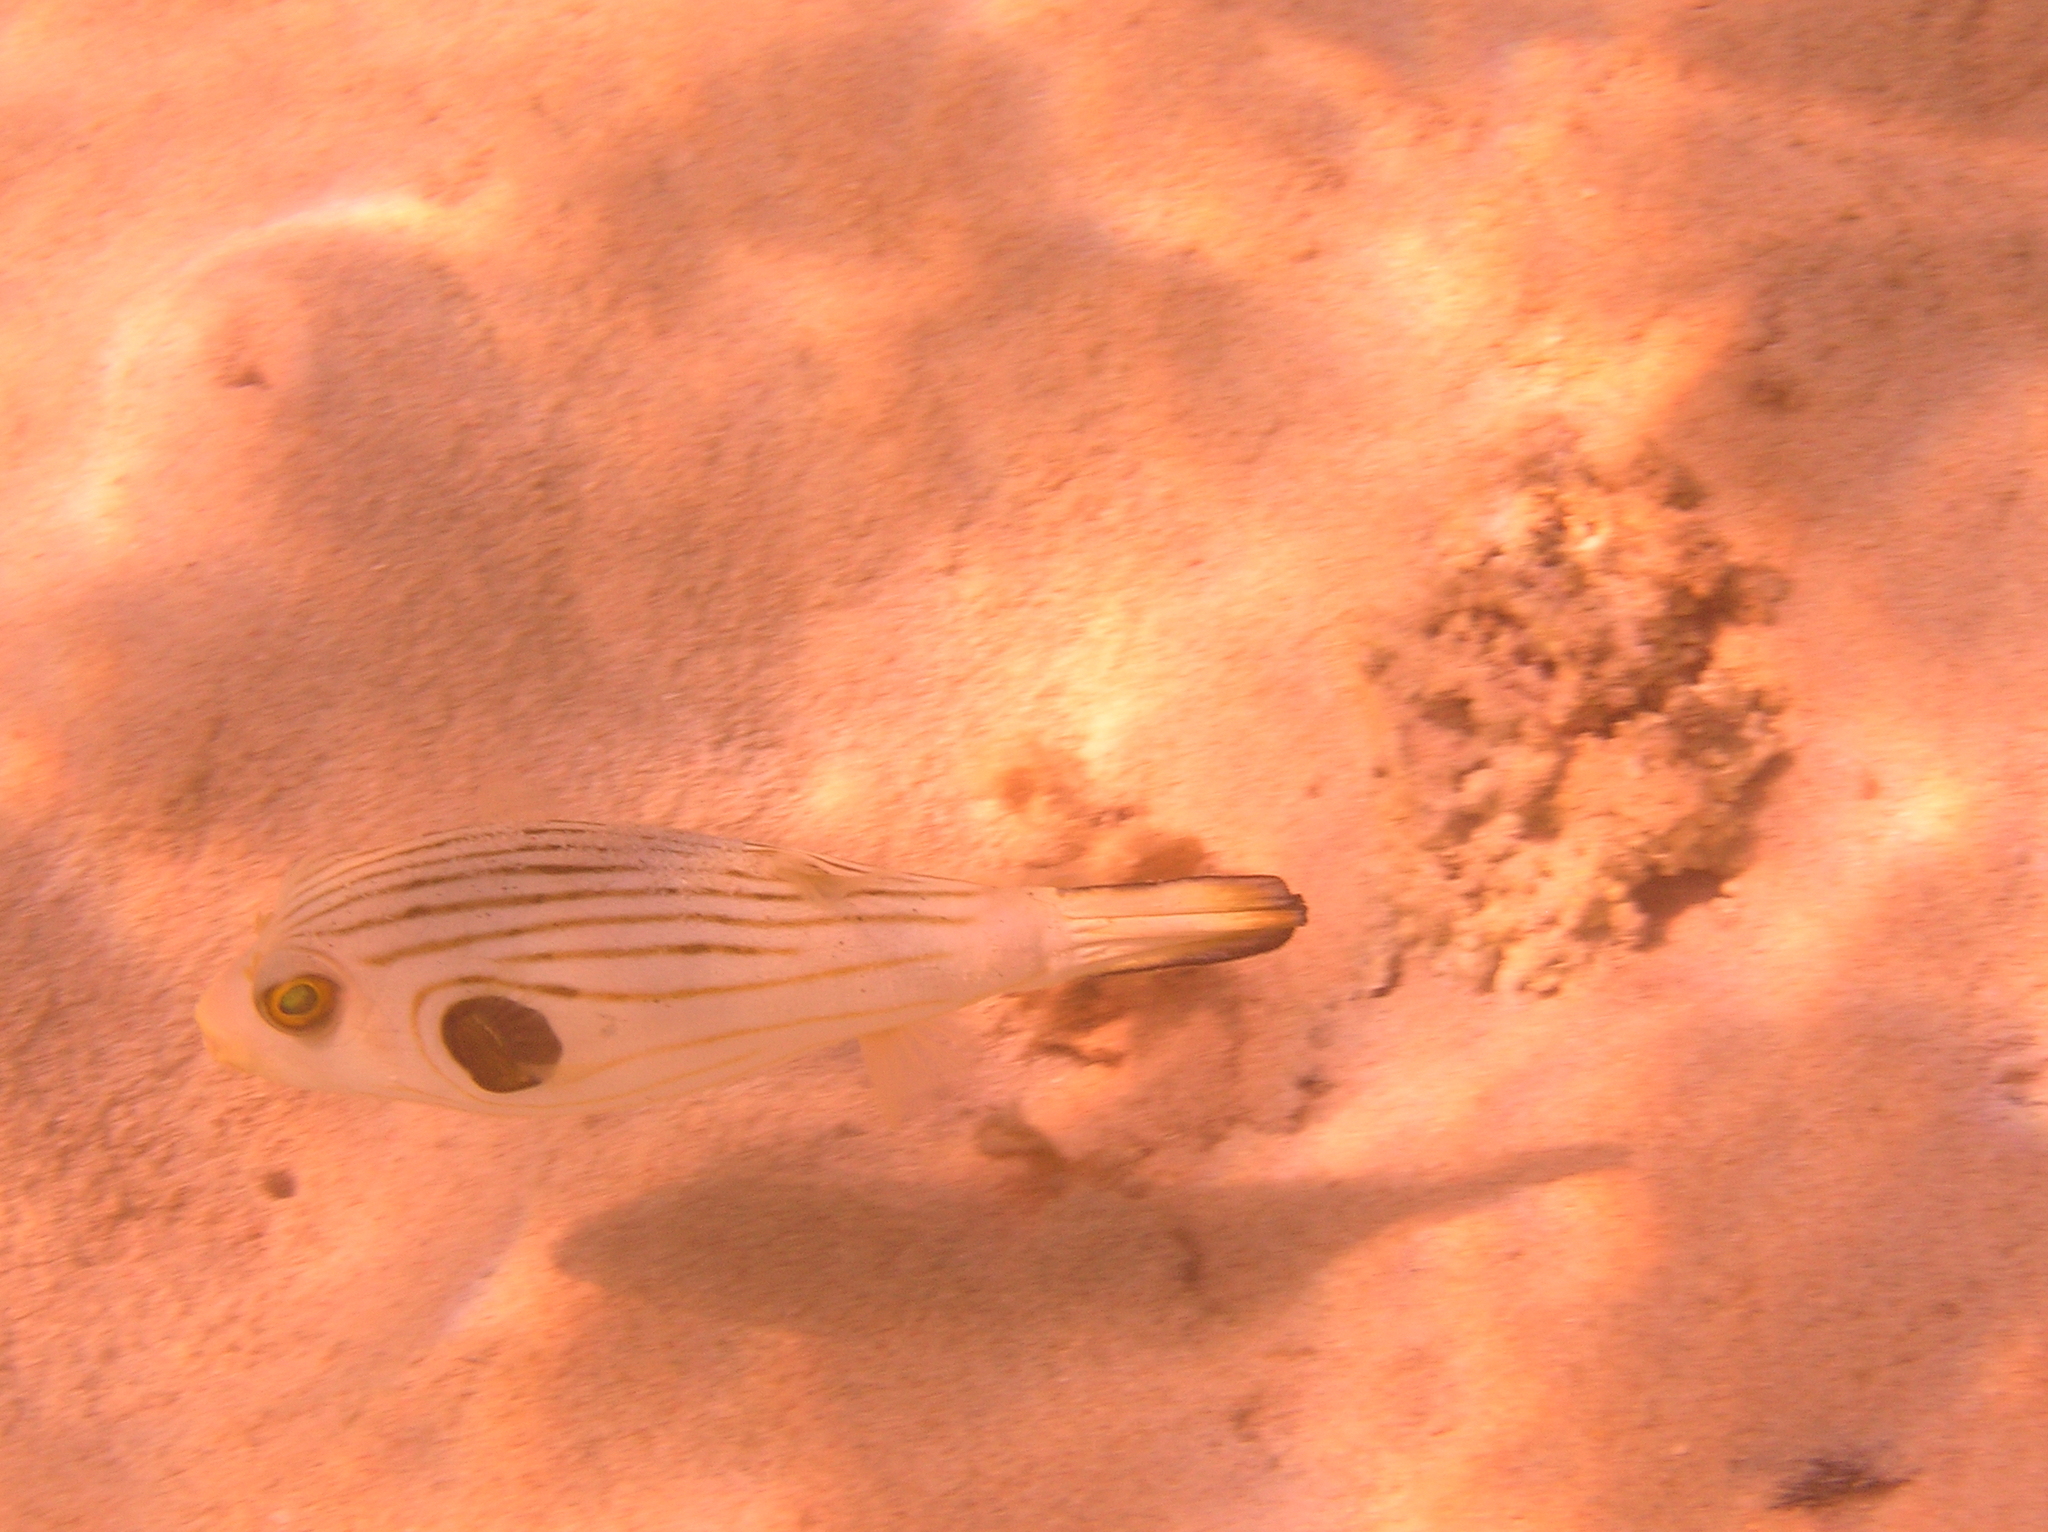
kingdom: Animalia
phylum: Chordata
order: Tetraodontiformes
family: Tetraodontidae
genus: Arothron
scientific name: Arothron manilensis
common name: Narrow-lined puffer
